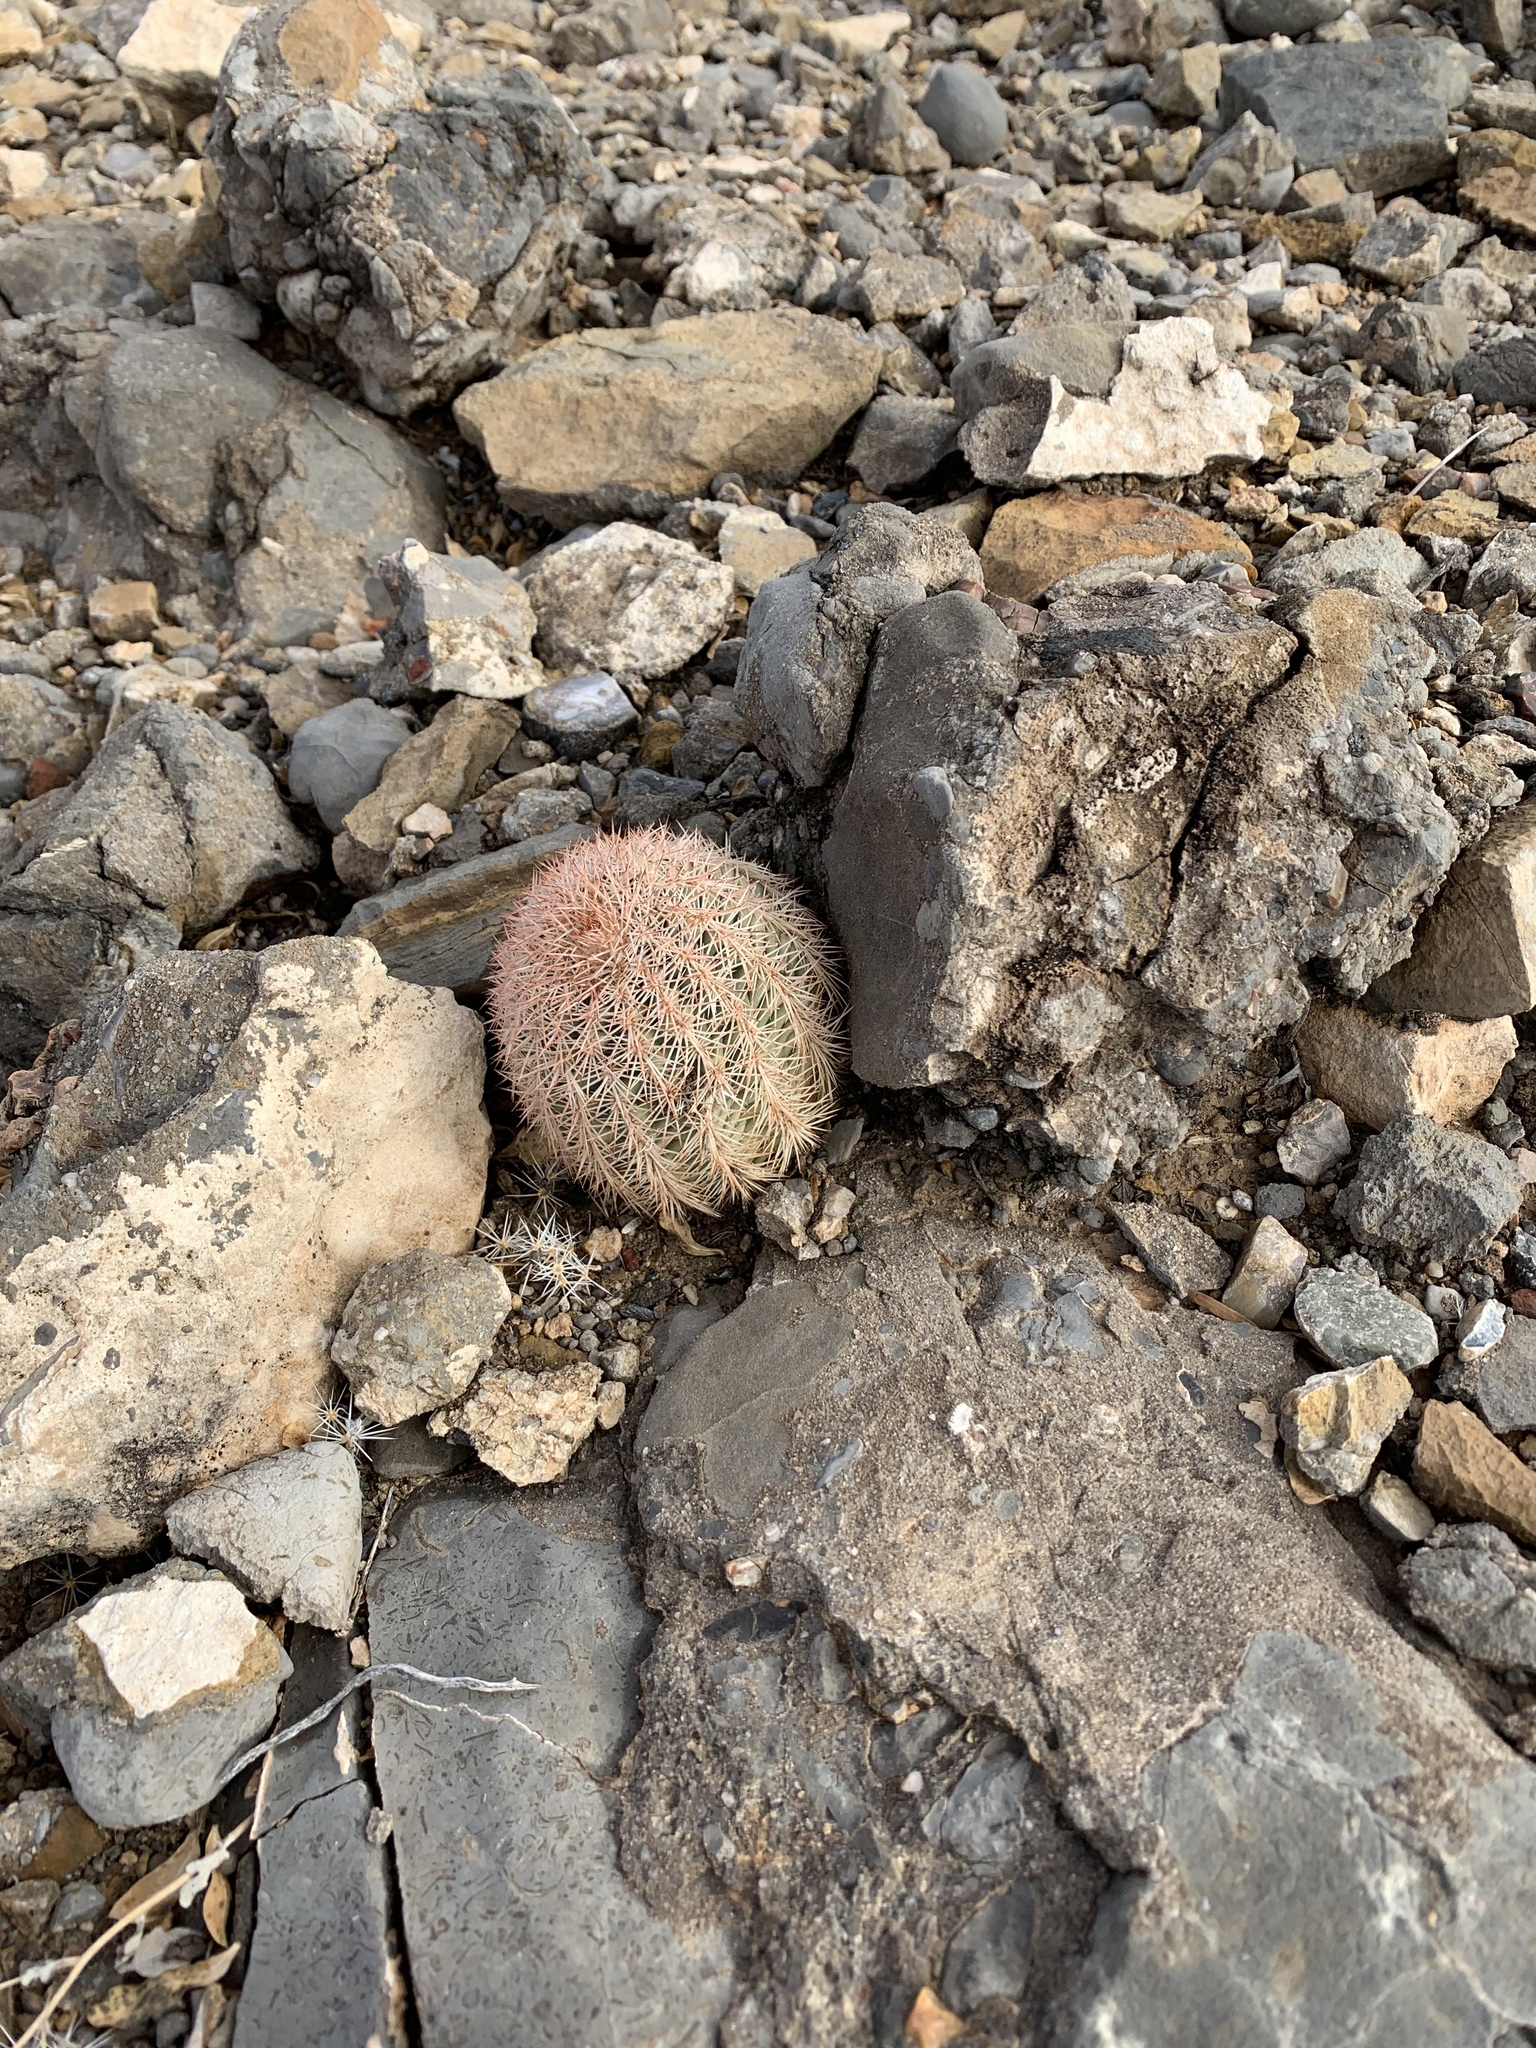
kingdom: Plantae
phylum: Tracheophyta
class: Magnoliopsida
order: Caryophyllales
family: Cactaceae
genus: Echinocereus
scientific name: Echinocereus dasyacanthus
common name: Spiny hedgehog cactus
